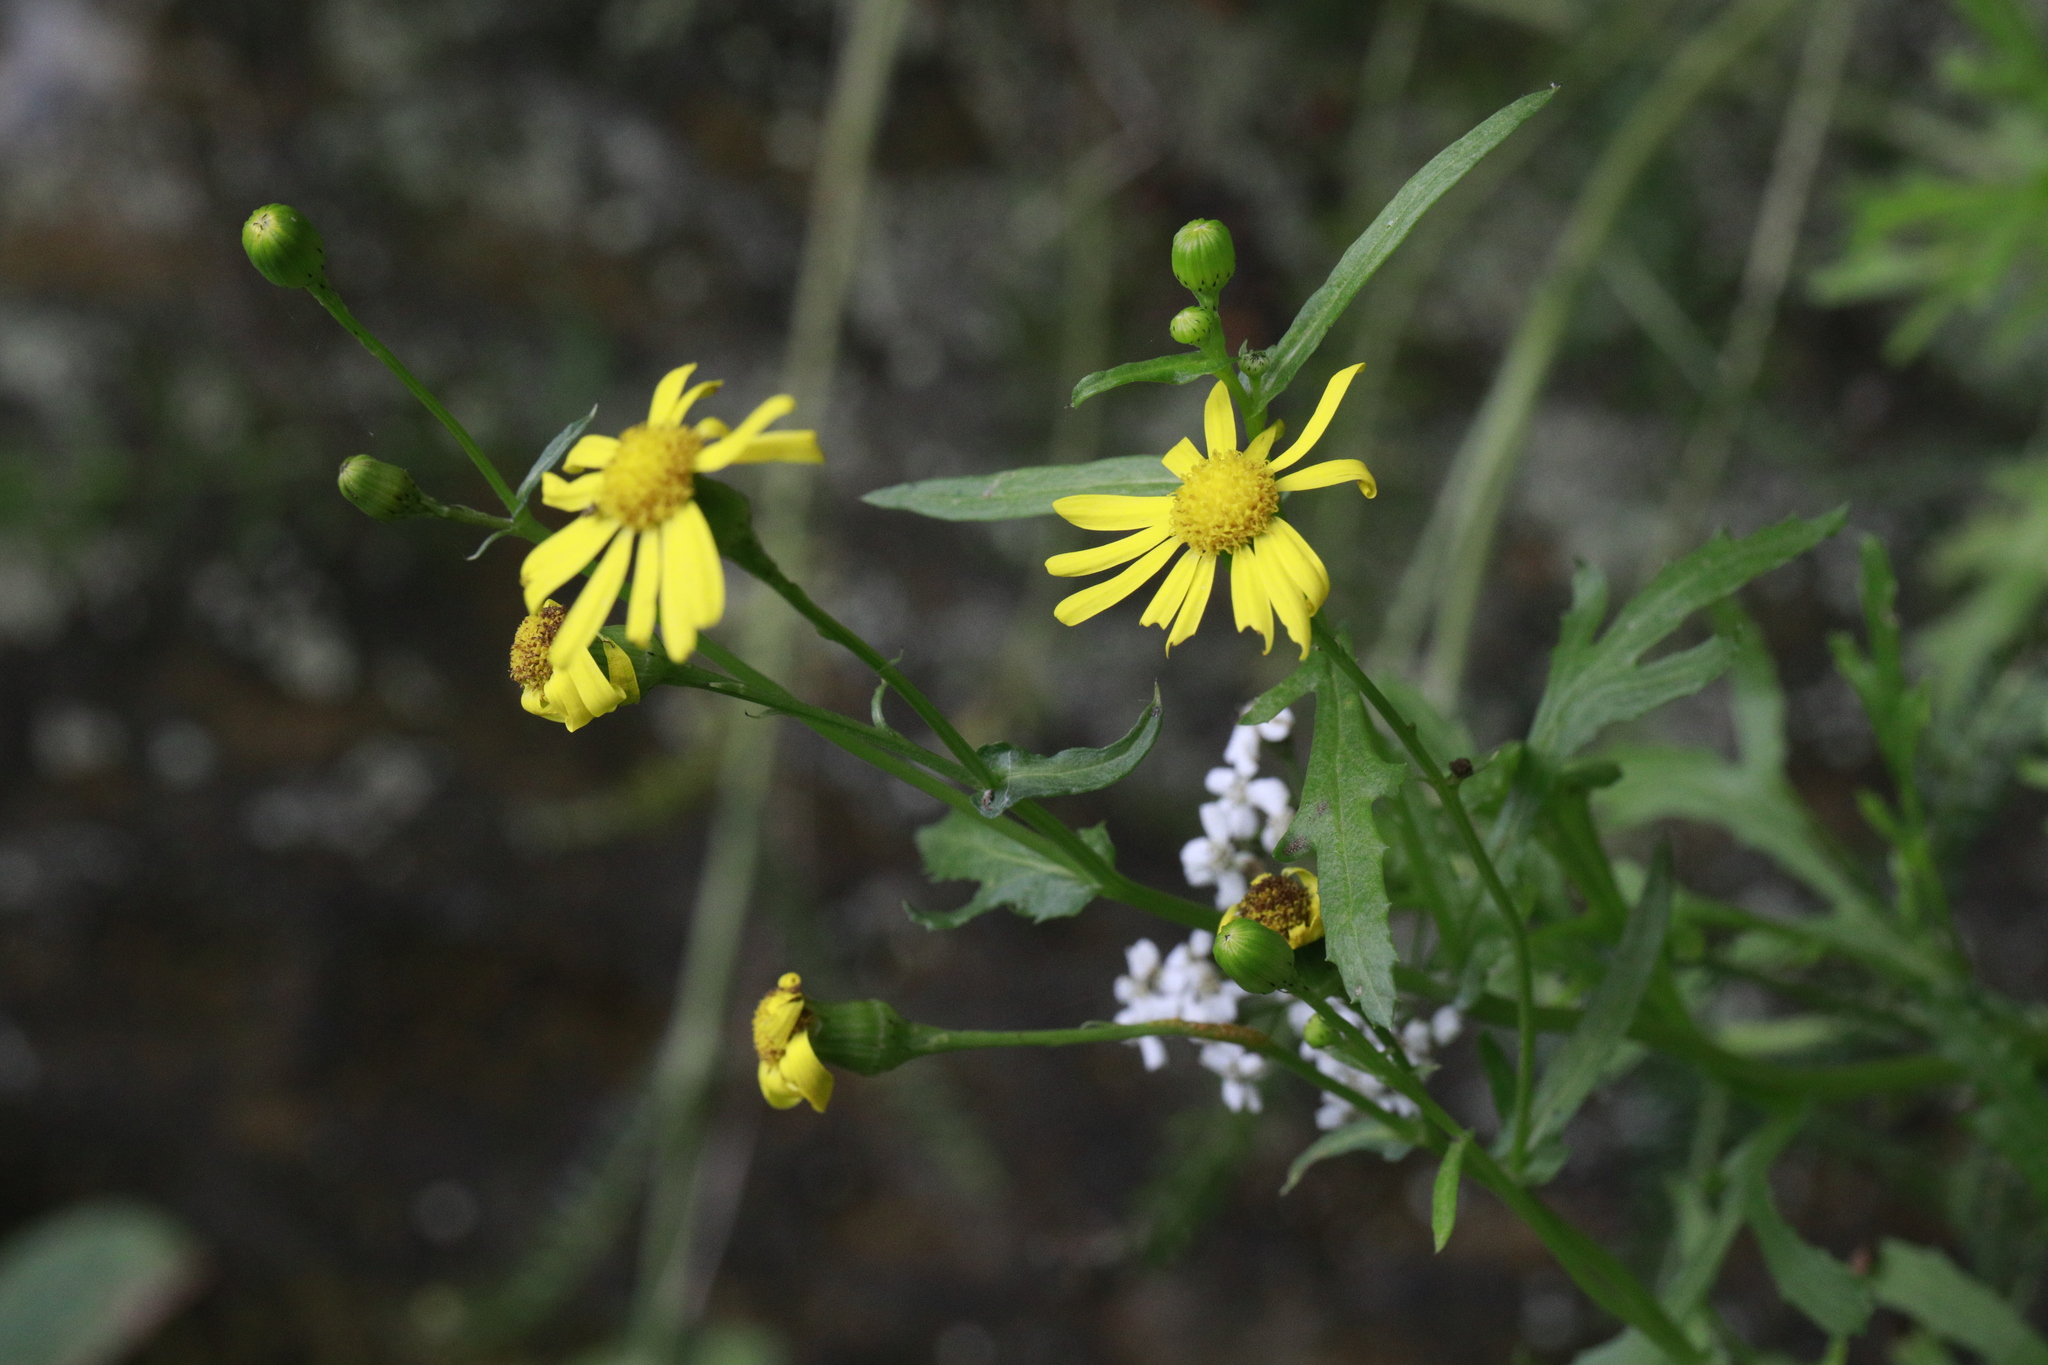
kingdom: Plantae
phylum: Tracheophyta
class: Magnoliopsida
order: Asterales
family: Asteraceae
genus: Senecio
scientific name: Senecio squalidus
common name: Oxford ragwort
